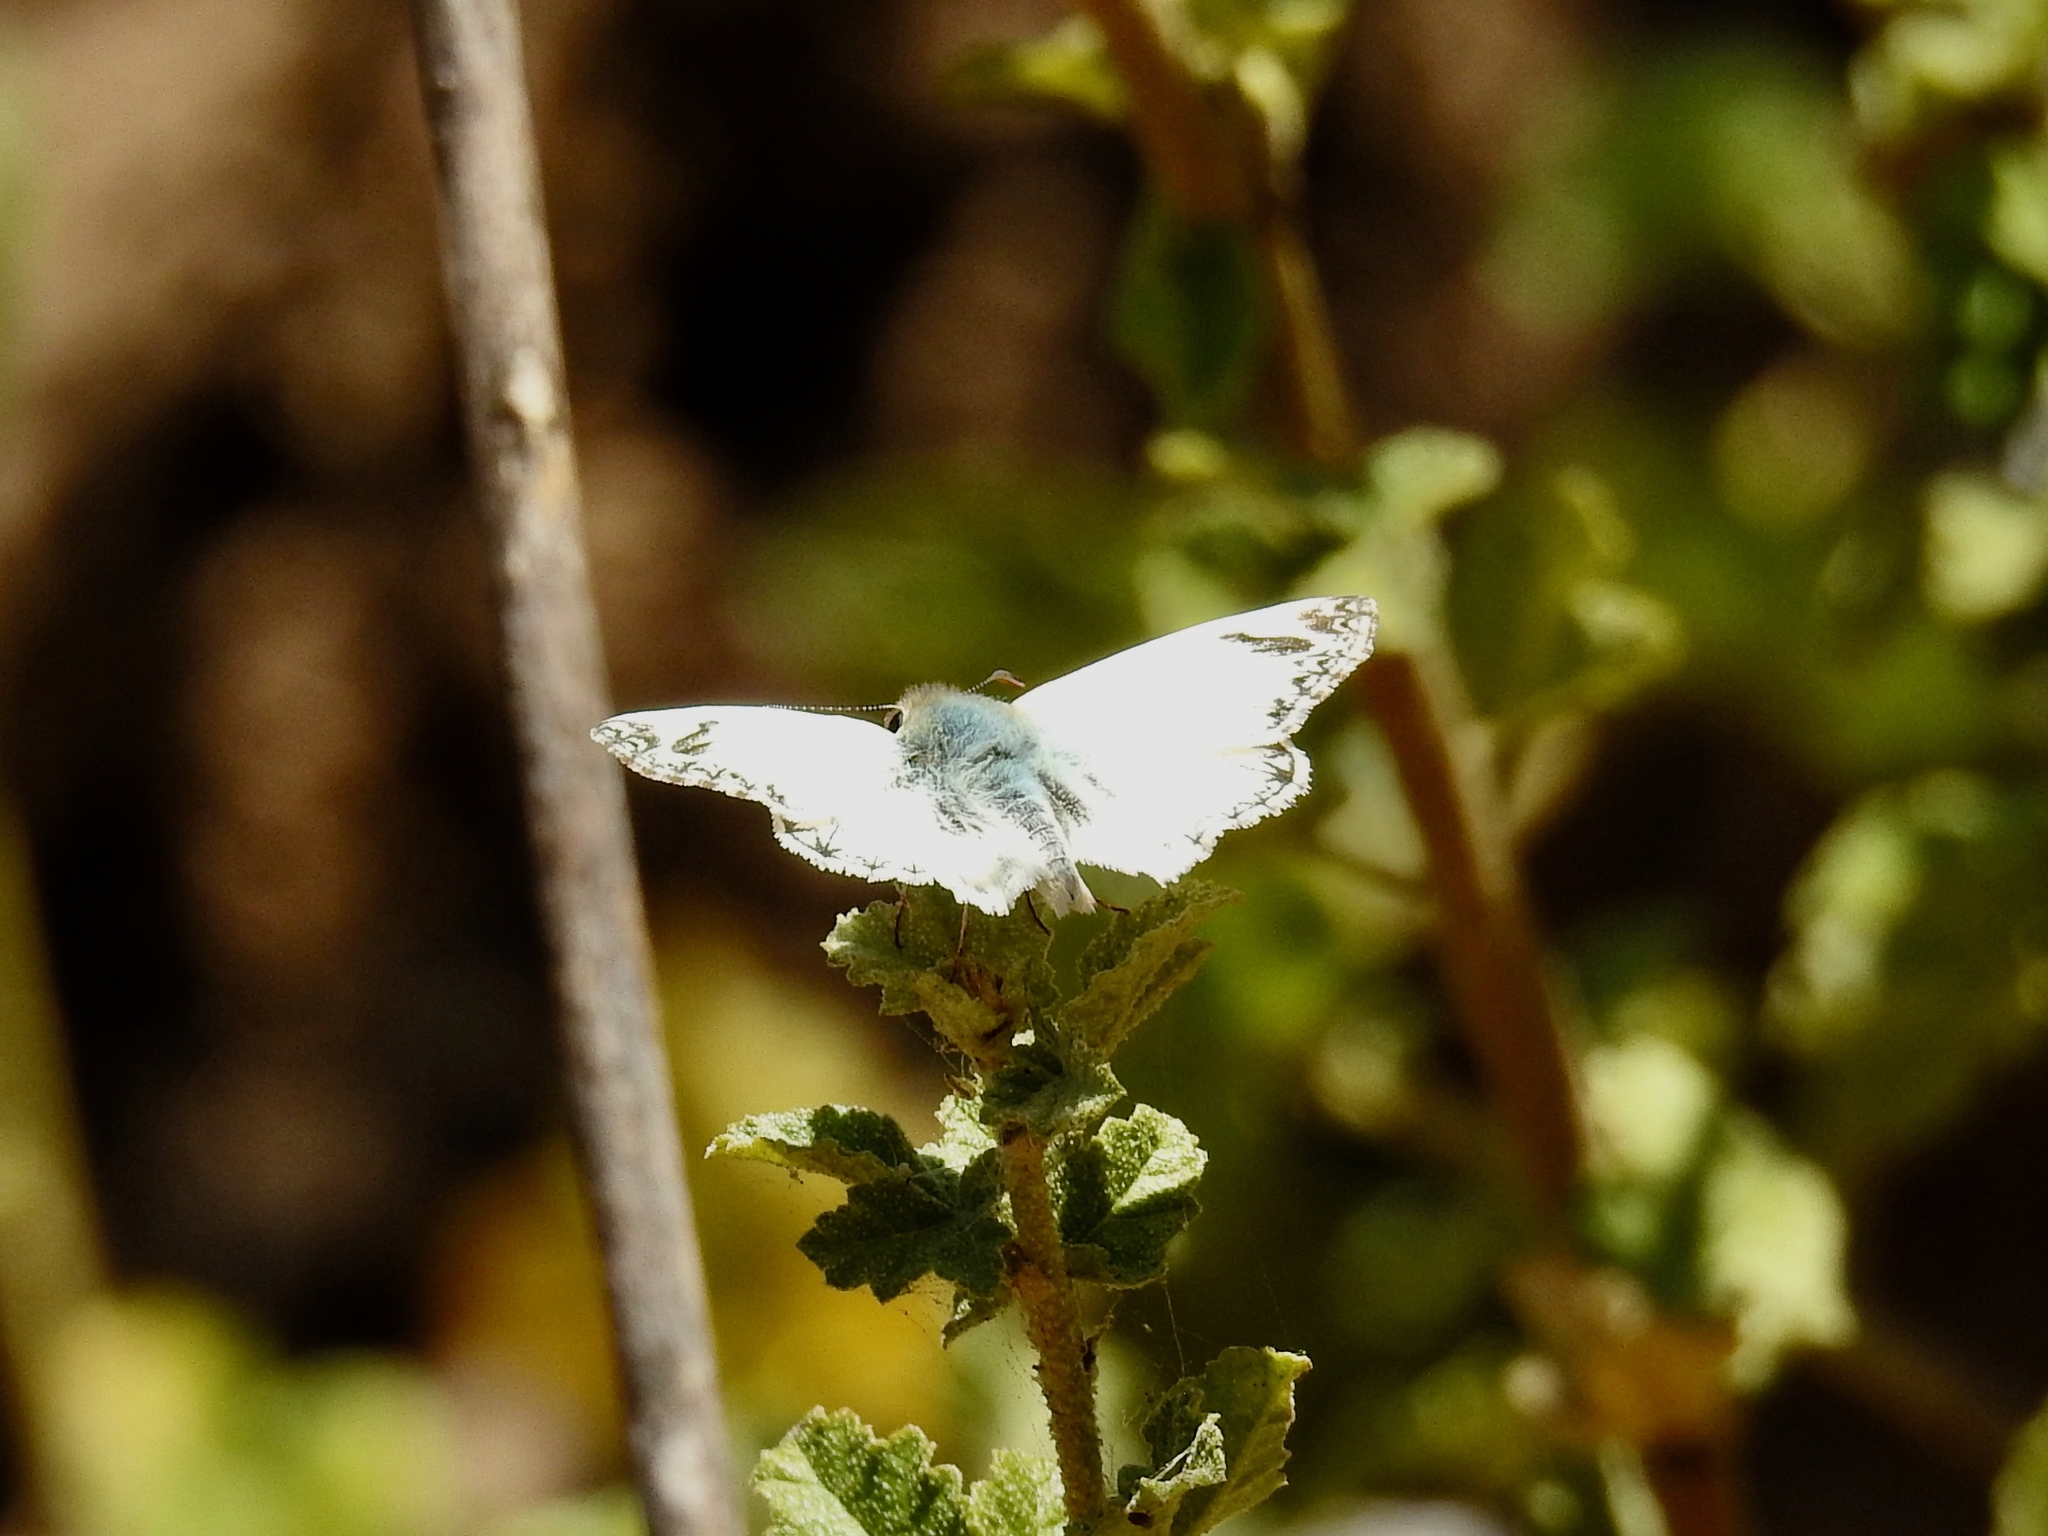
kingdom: Animalia
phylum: Arthropoda
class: Insecta
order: Lepidoptera
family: Hesperiidae
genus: Heliopetes
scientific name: Heliopetes ericetorum
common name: Northern white-skipper
